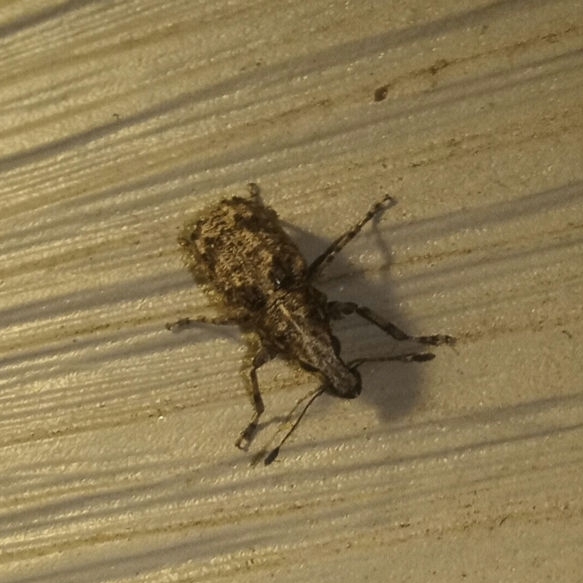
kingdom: Animalia
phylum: Arthropoda
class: Insecta
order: Coleoptera
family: Anthribidae
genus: Meconemus
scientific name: Meconemus infuscatus
